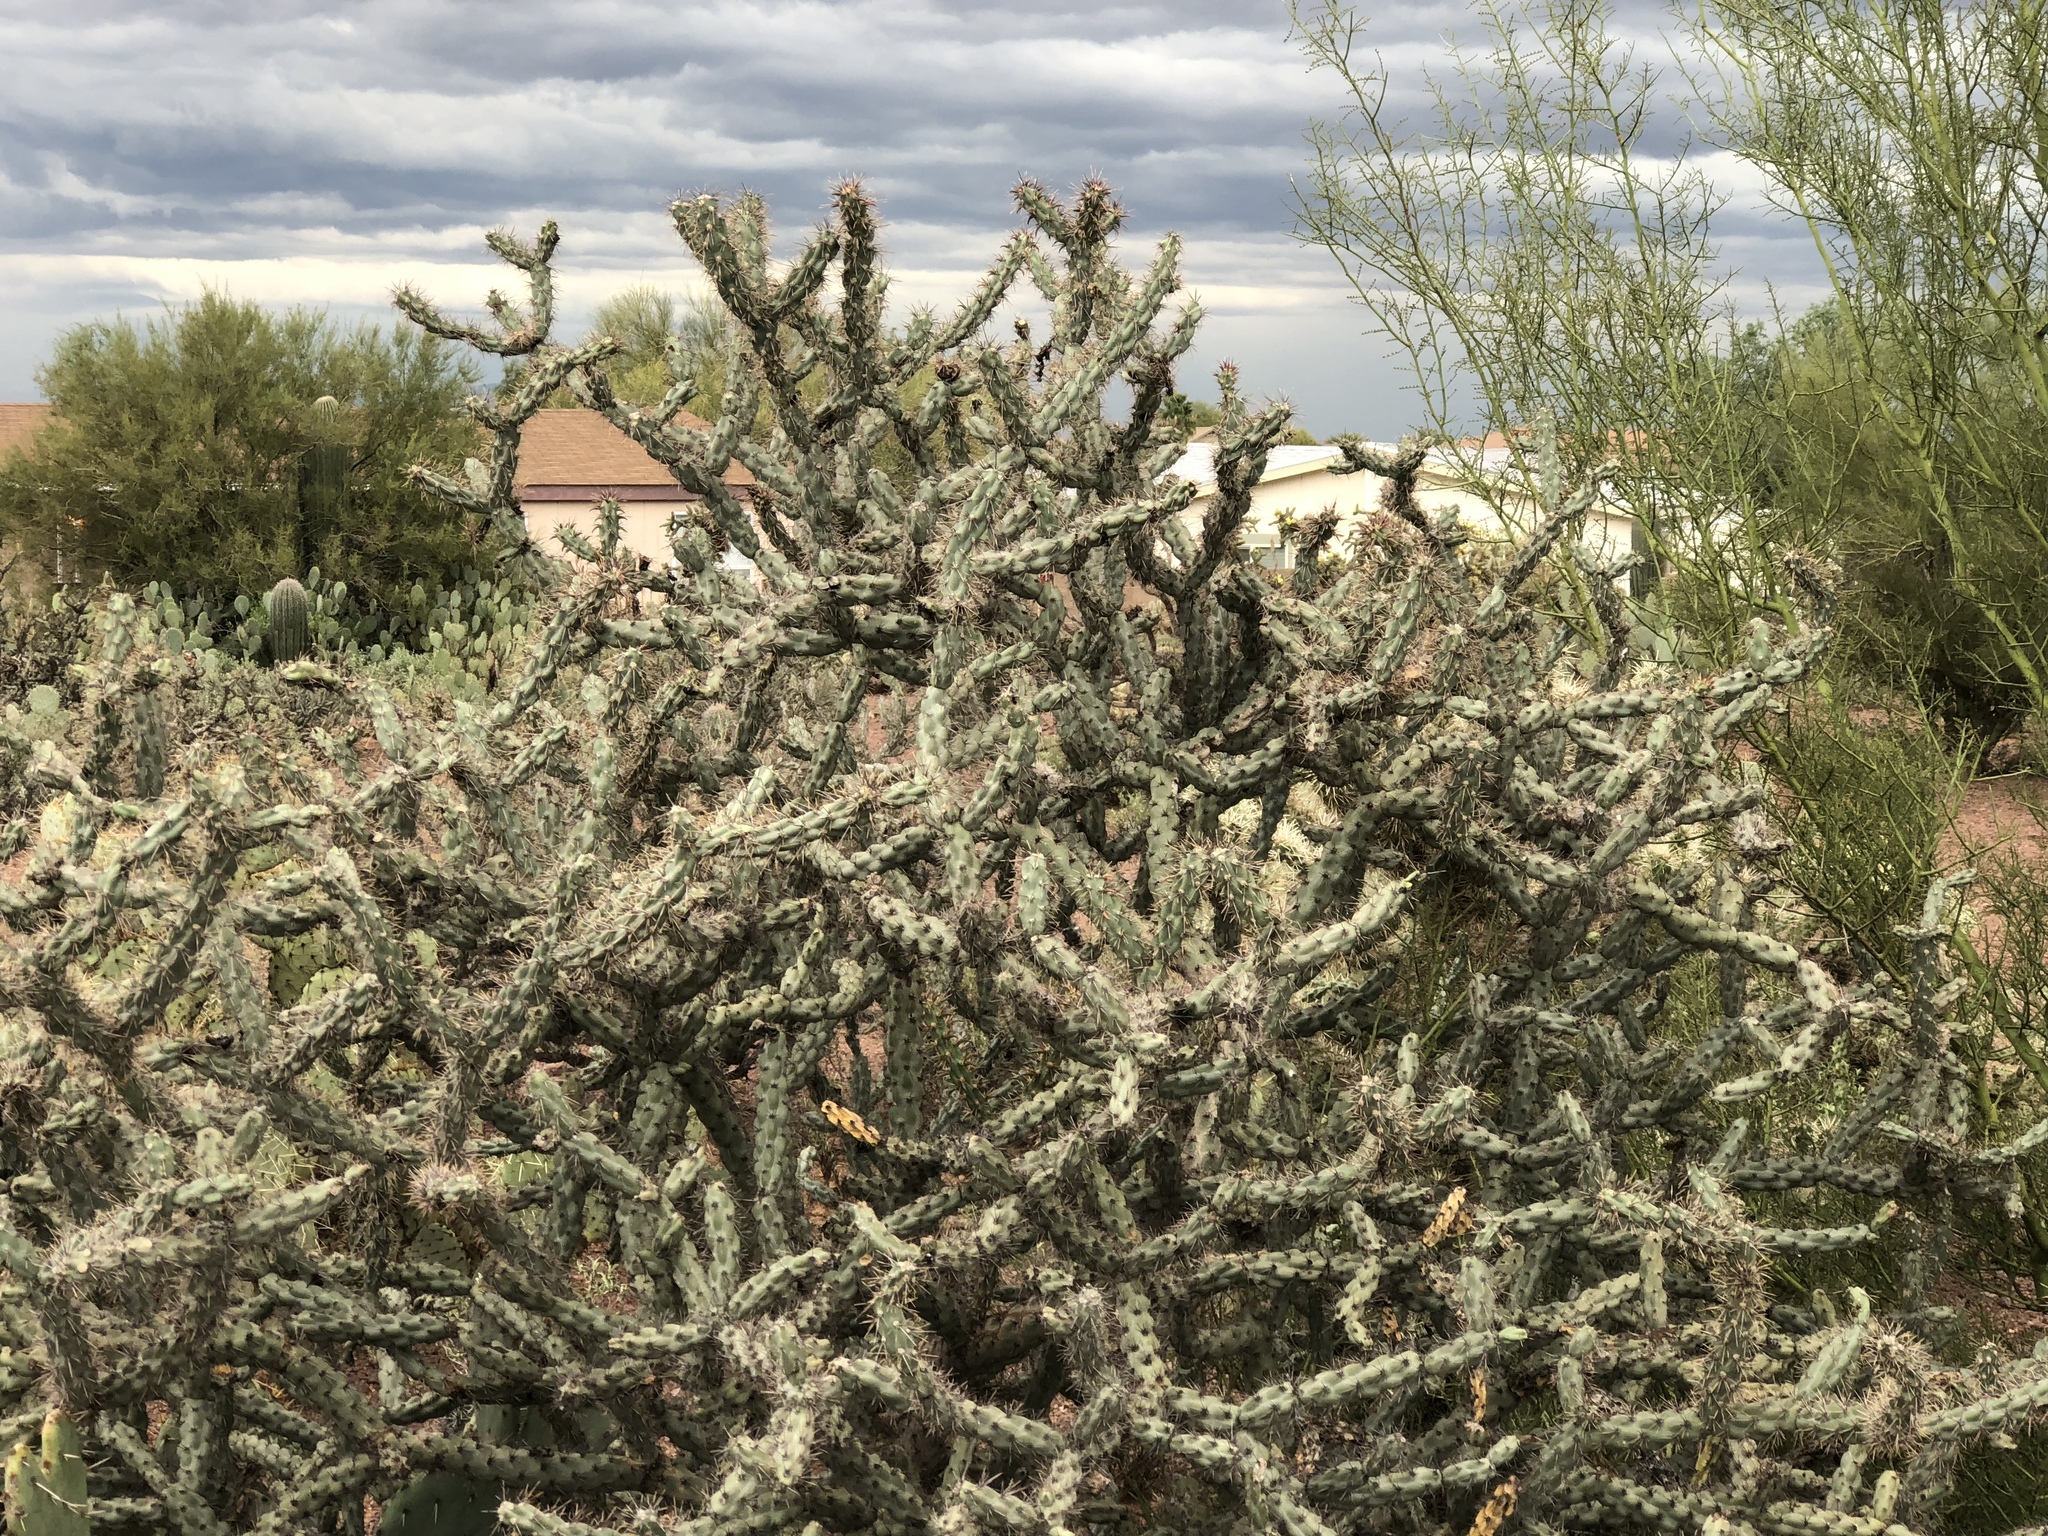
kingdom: Plantae
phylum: Tracheophyta
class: Magnoliopsida
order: Caryophyllales
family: Cactaceae
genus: Cylindropuntia
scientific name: Cylindropuntia acanthocarpa
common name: Buckhorn cholla
